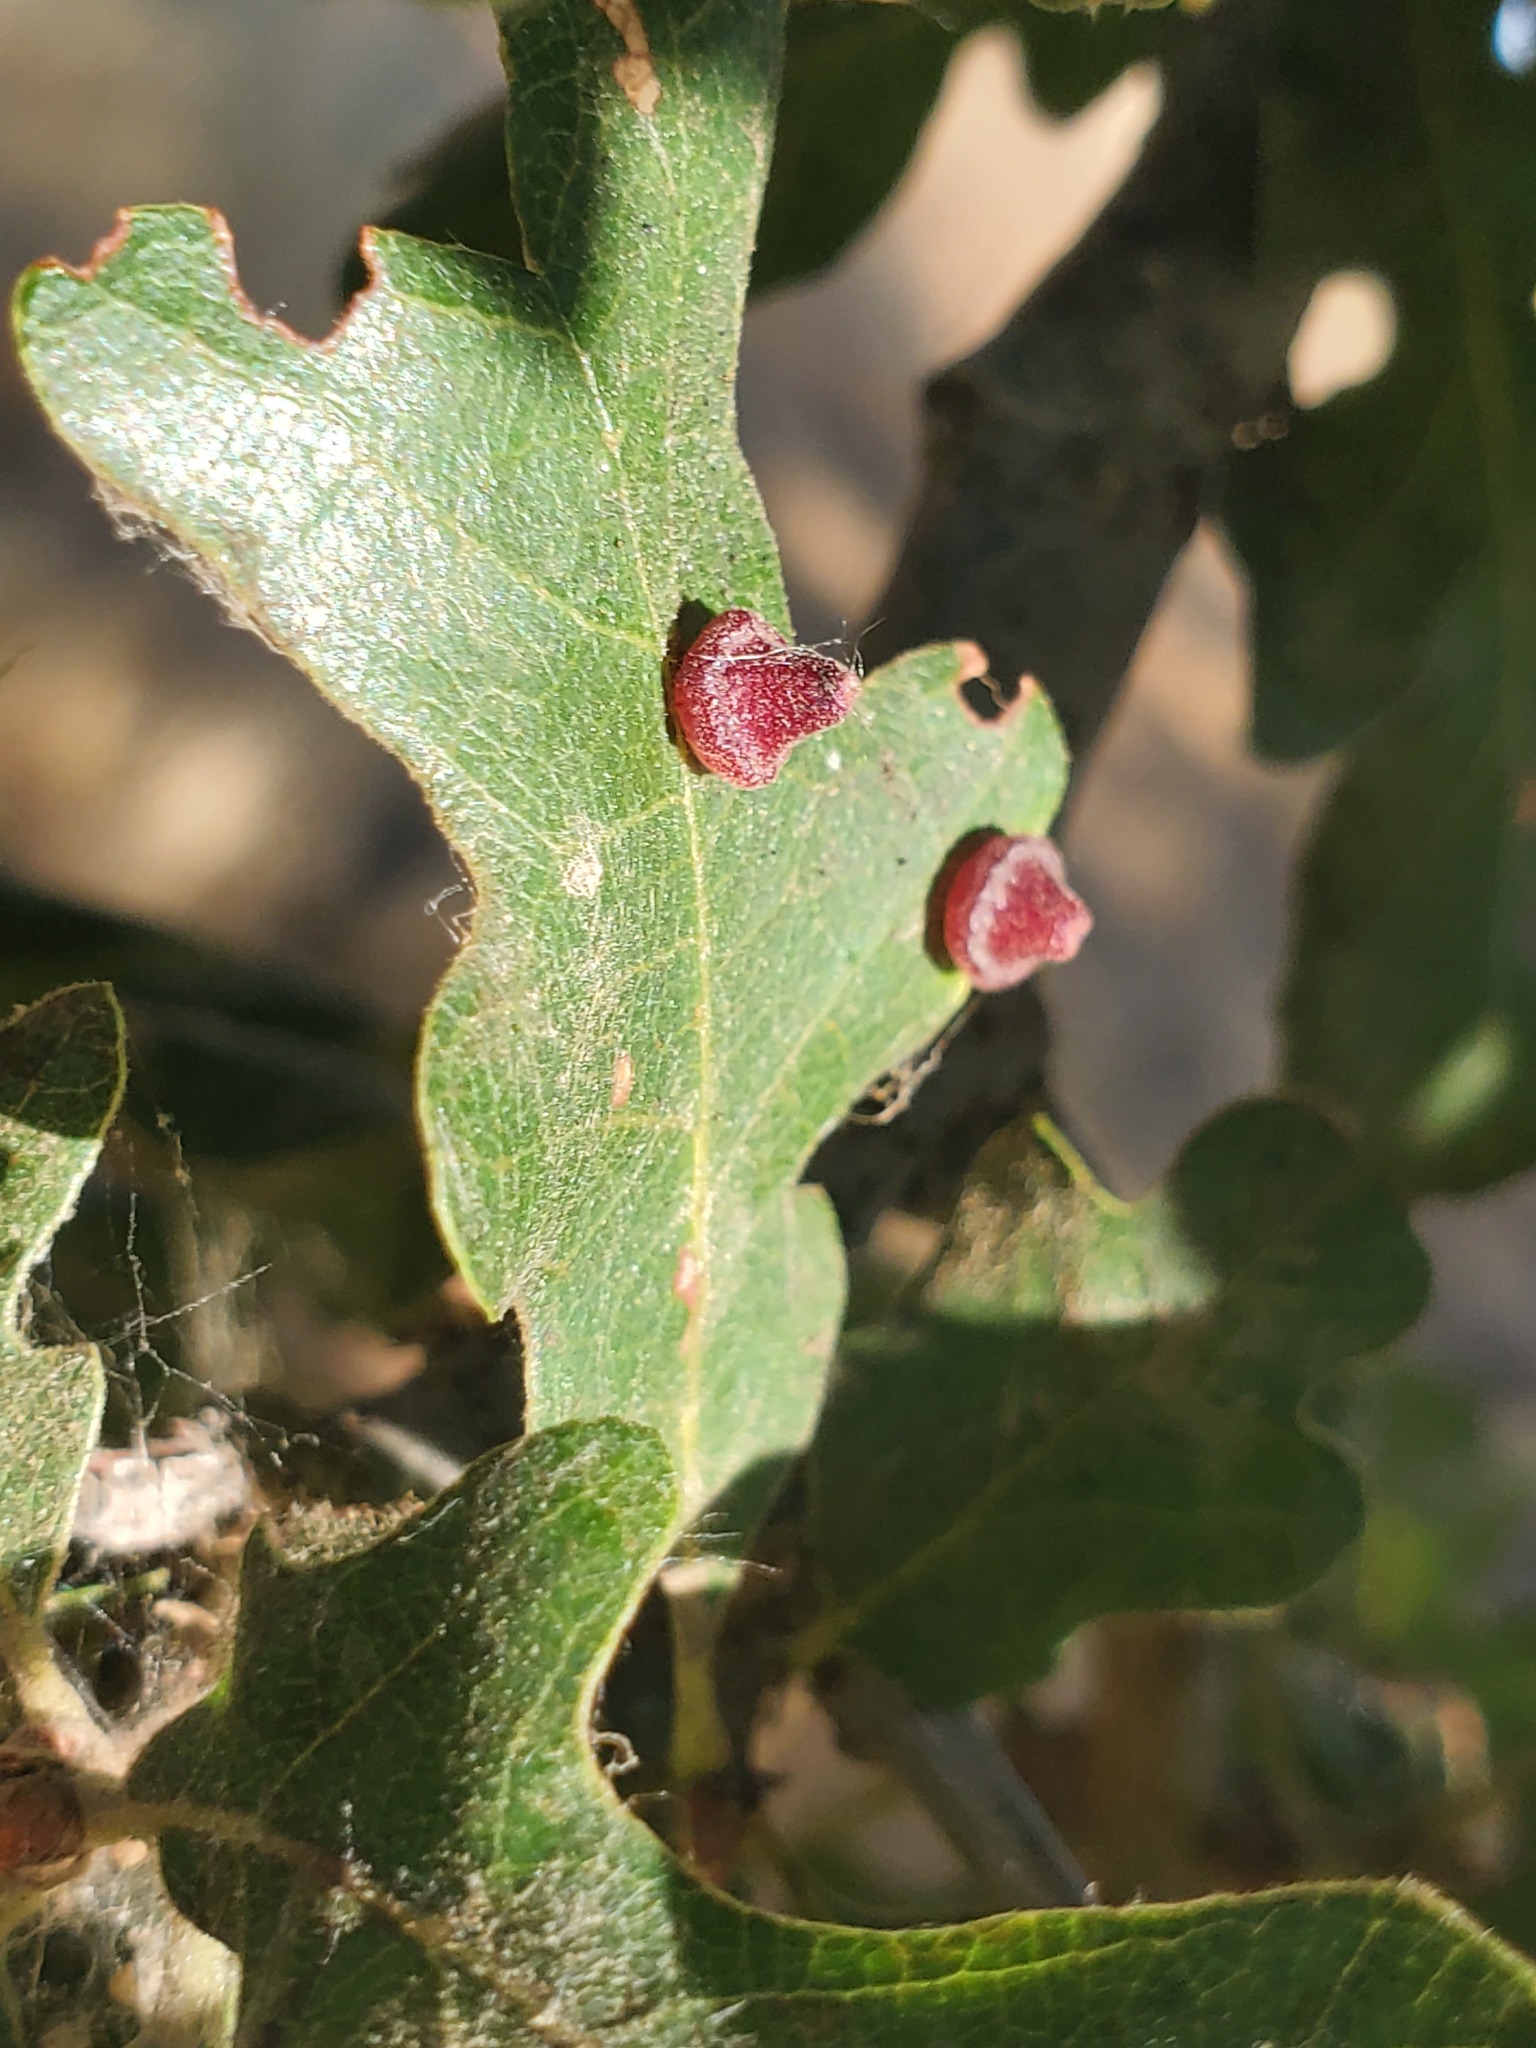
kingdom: Animalia
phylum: Arthropoda
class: Insecta
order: Hymenoptera
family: Cynipidae
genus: Andricus
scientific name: Andricus
